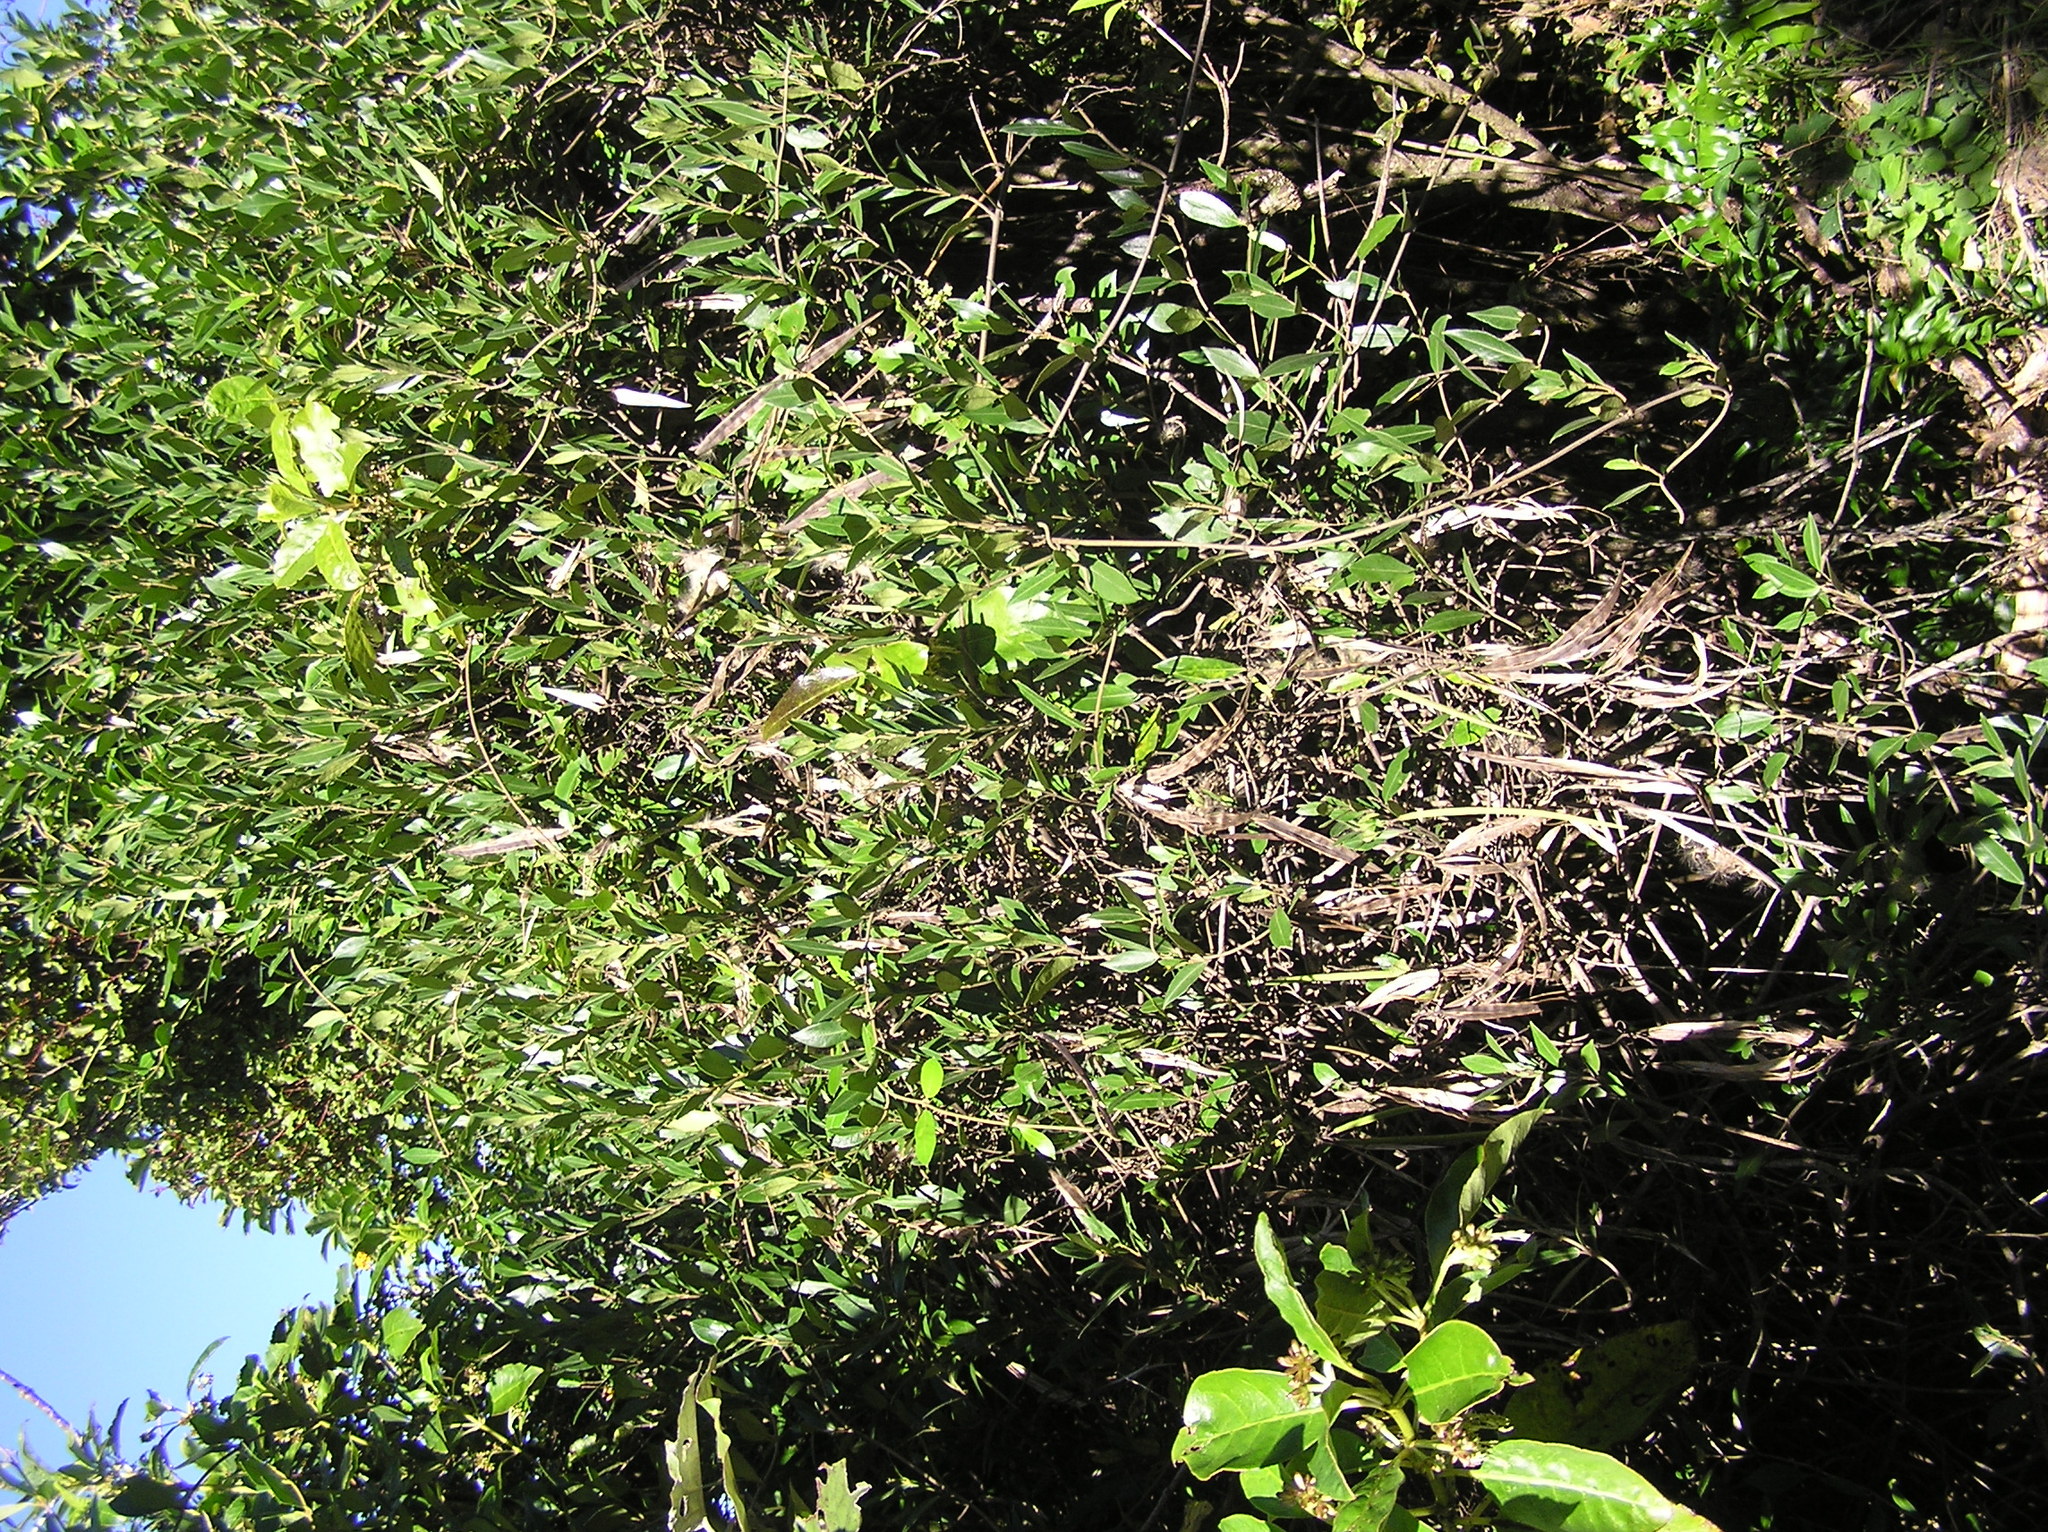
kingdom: Plantae
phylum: Tracheophyta
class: Magnoliopsida
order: Gentianales
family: Apocynaceae
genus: Parsonsia
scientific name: Parsonsia heterophylla
